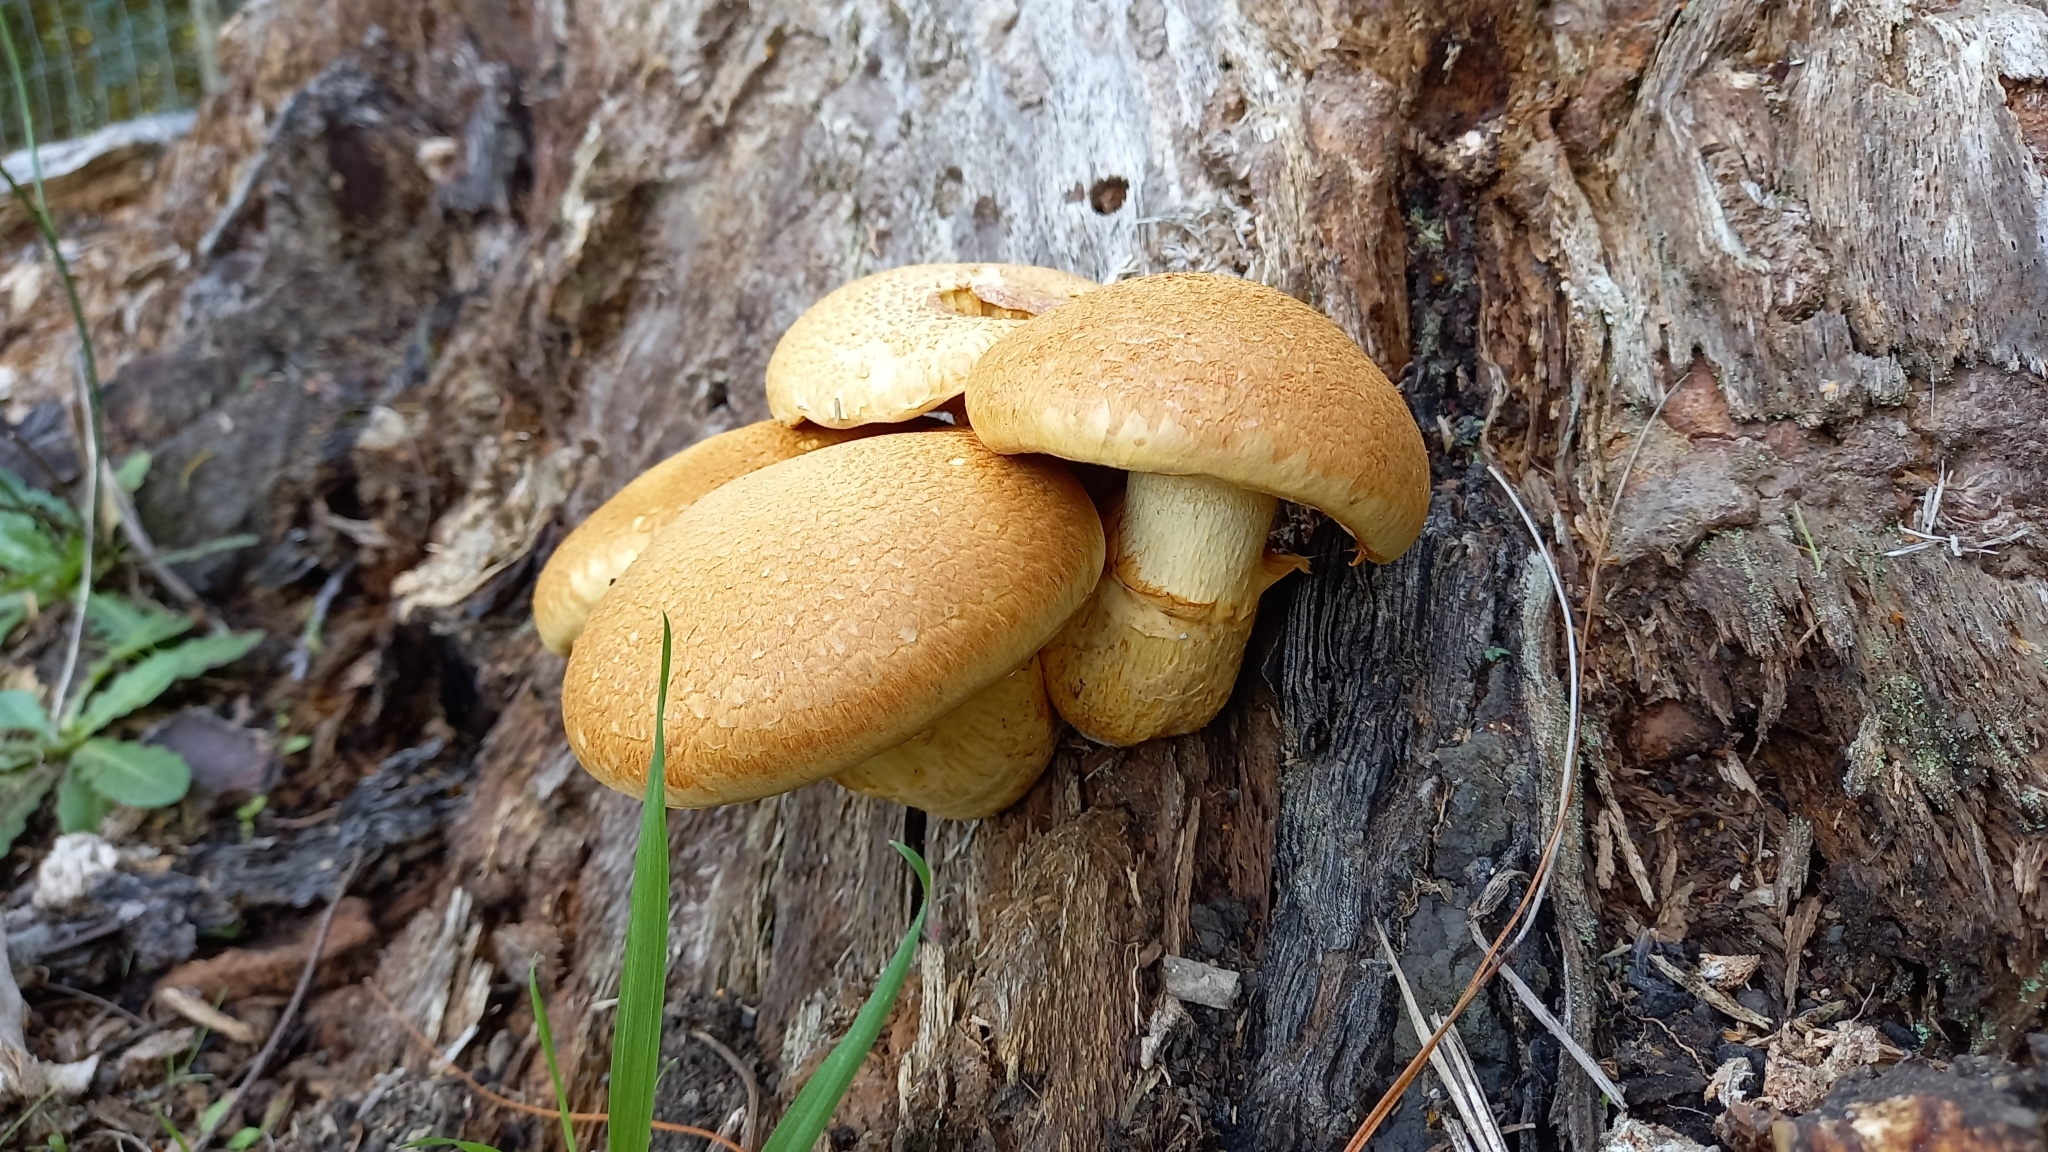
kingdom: Fungi
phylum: Basidiomycota
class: Agaricomycetes
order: Agaricales
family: Hymenogastraceae
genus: Gymnopilus
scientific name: Gymnopilus junonius
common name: Spectacular rustgill
